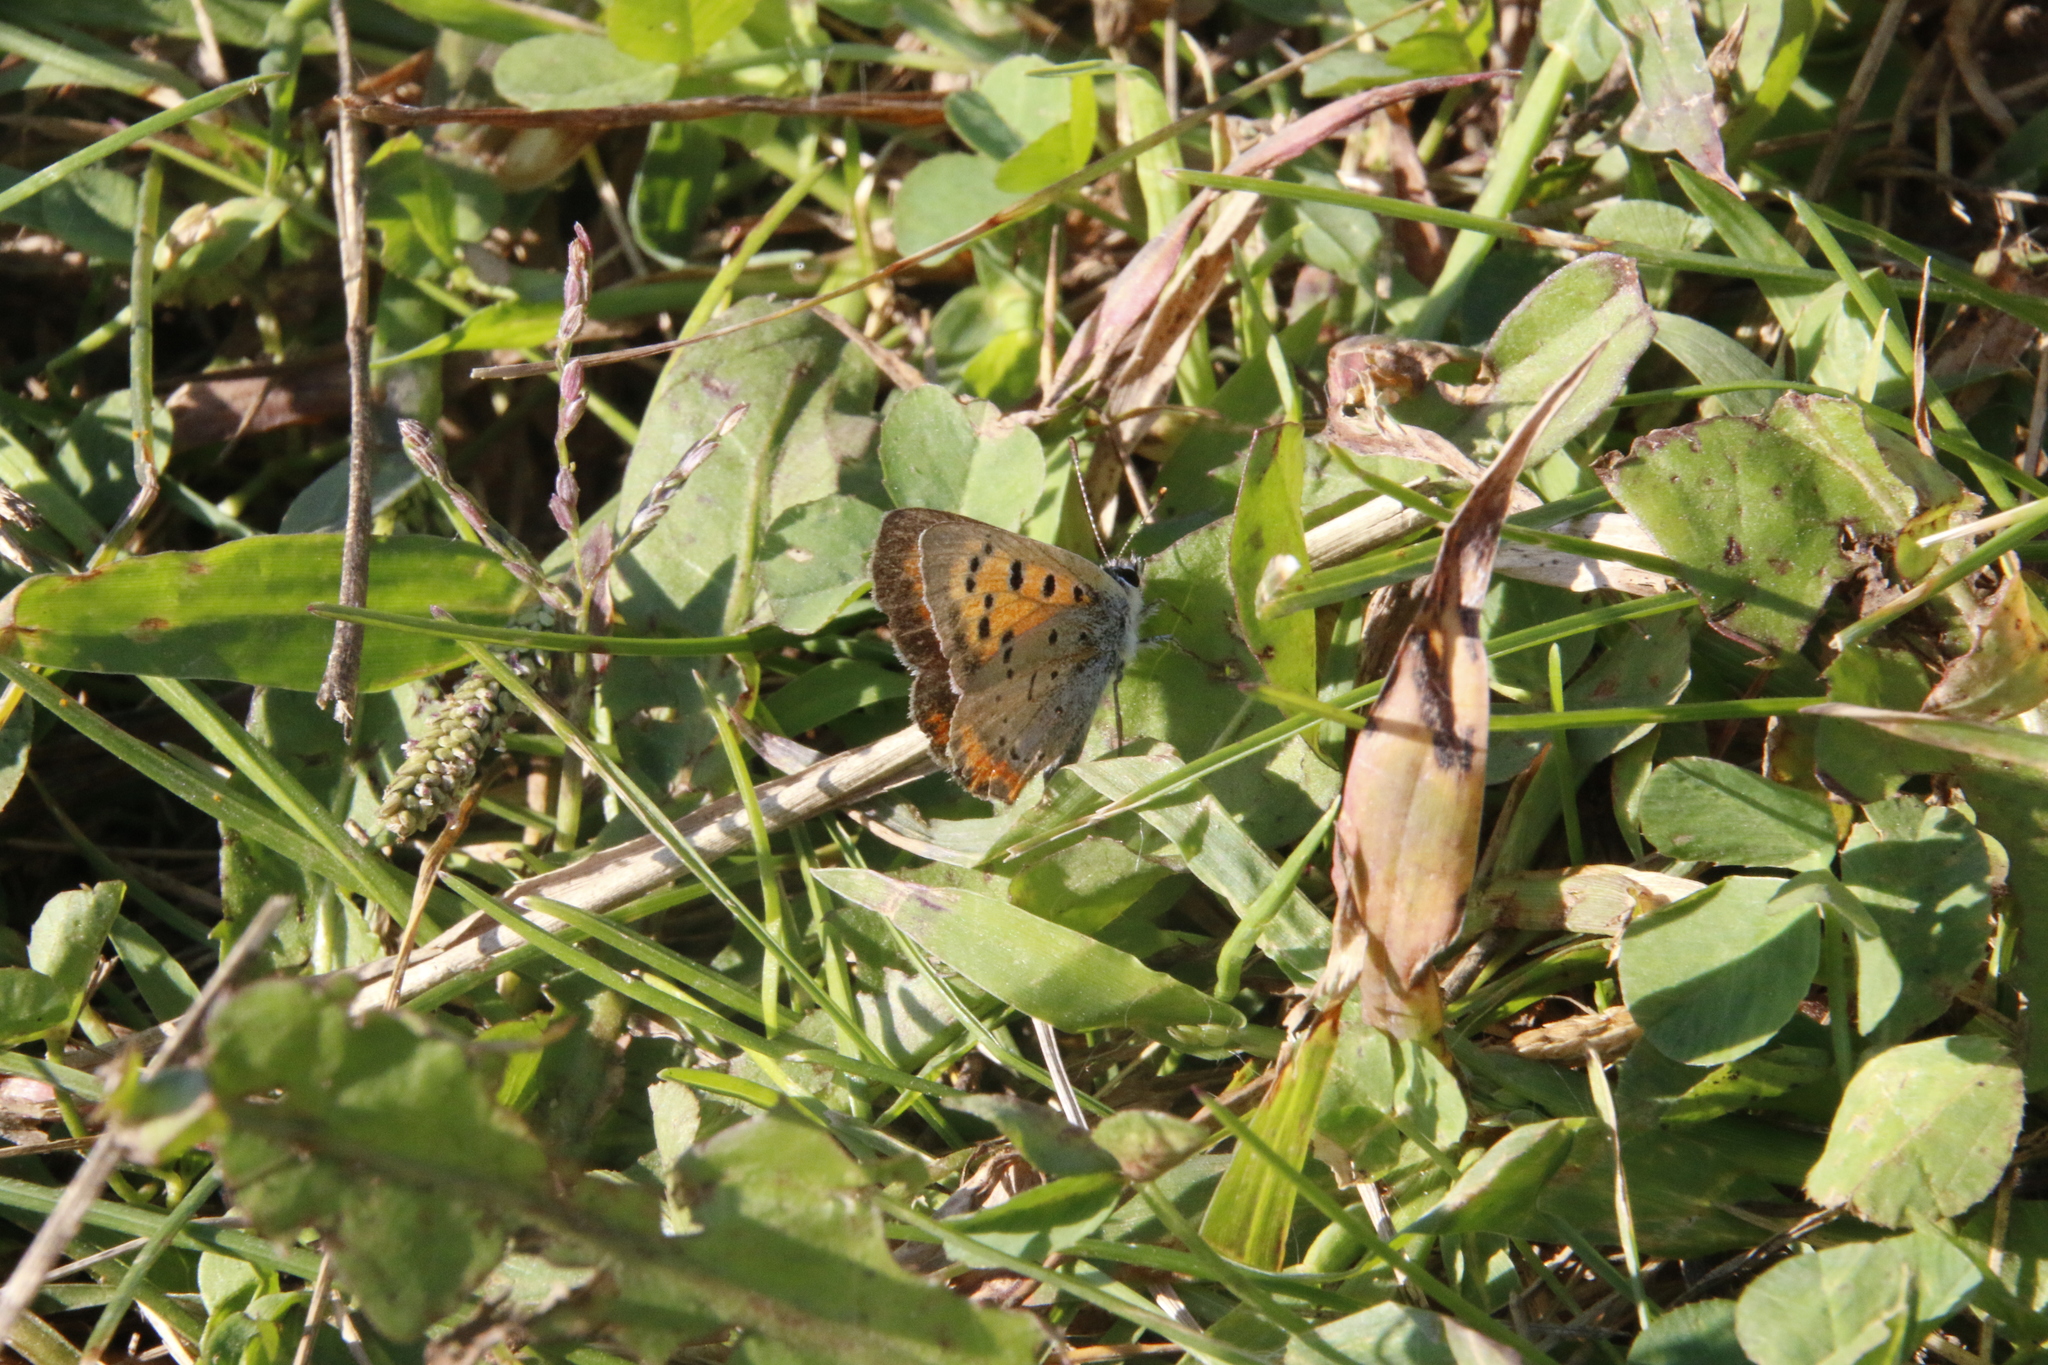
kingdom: Animalia
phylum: Arthropoda
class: Insecta
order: Lepidoptera
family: Lycaenidae
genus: Lycaena
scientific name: Lycaena hypophlaeas
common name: American copper
